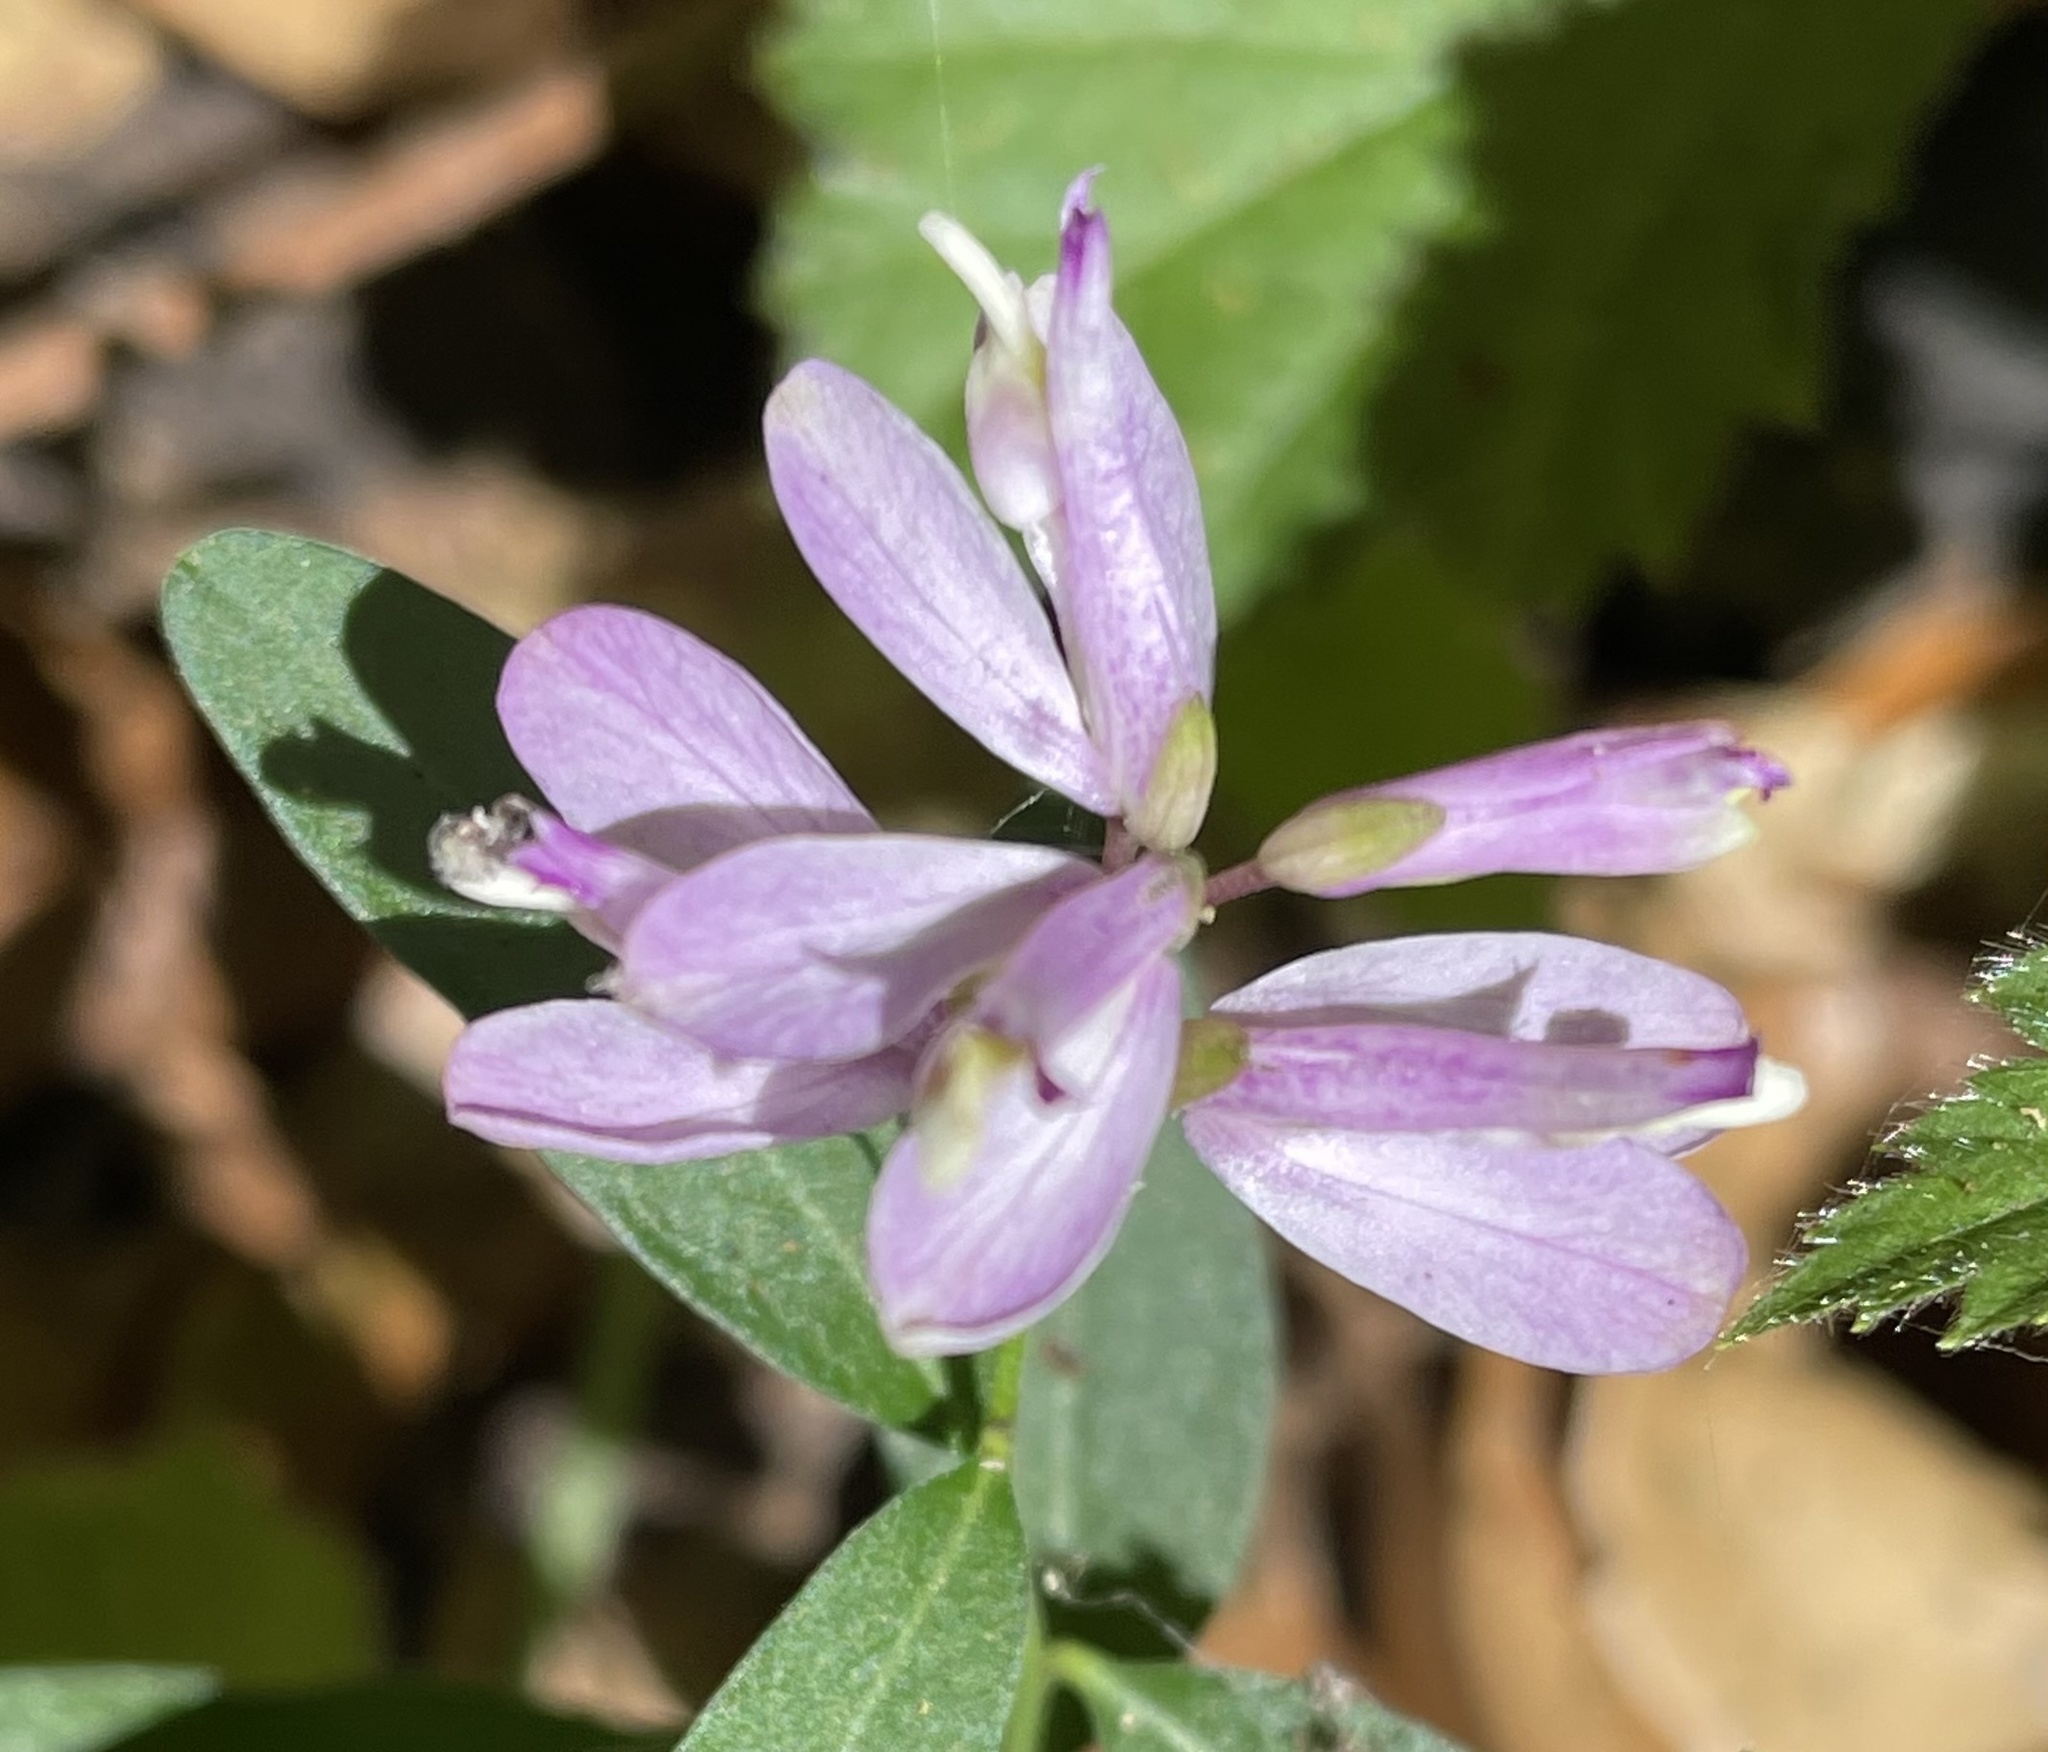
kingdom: Plantae
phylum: Tracheophyta
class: Magnoliopsida
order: Fabales
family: Polygalaceae
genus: Rhinotropis
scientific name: Rhinotropis californica
